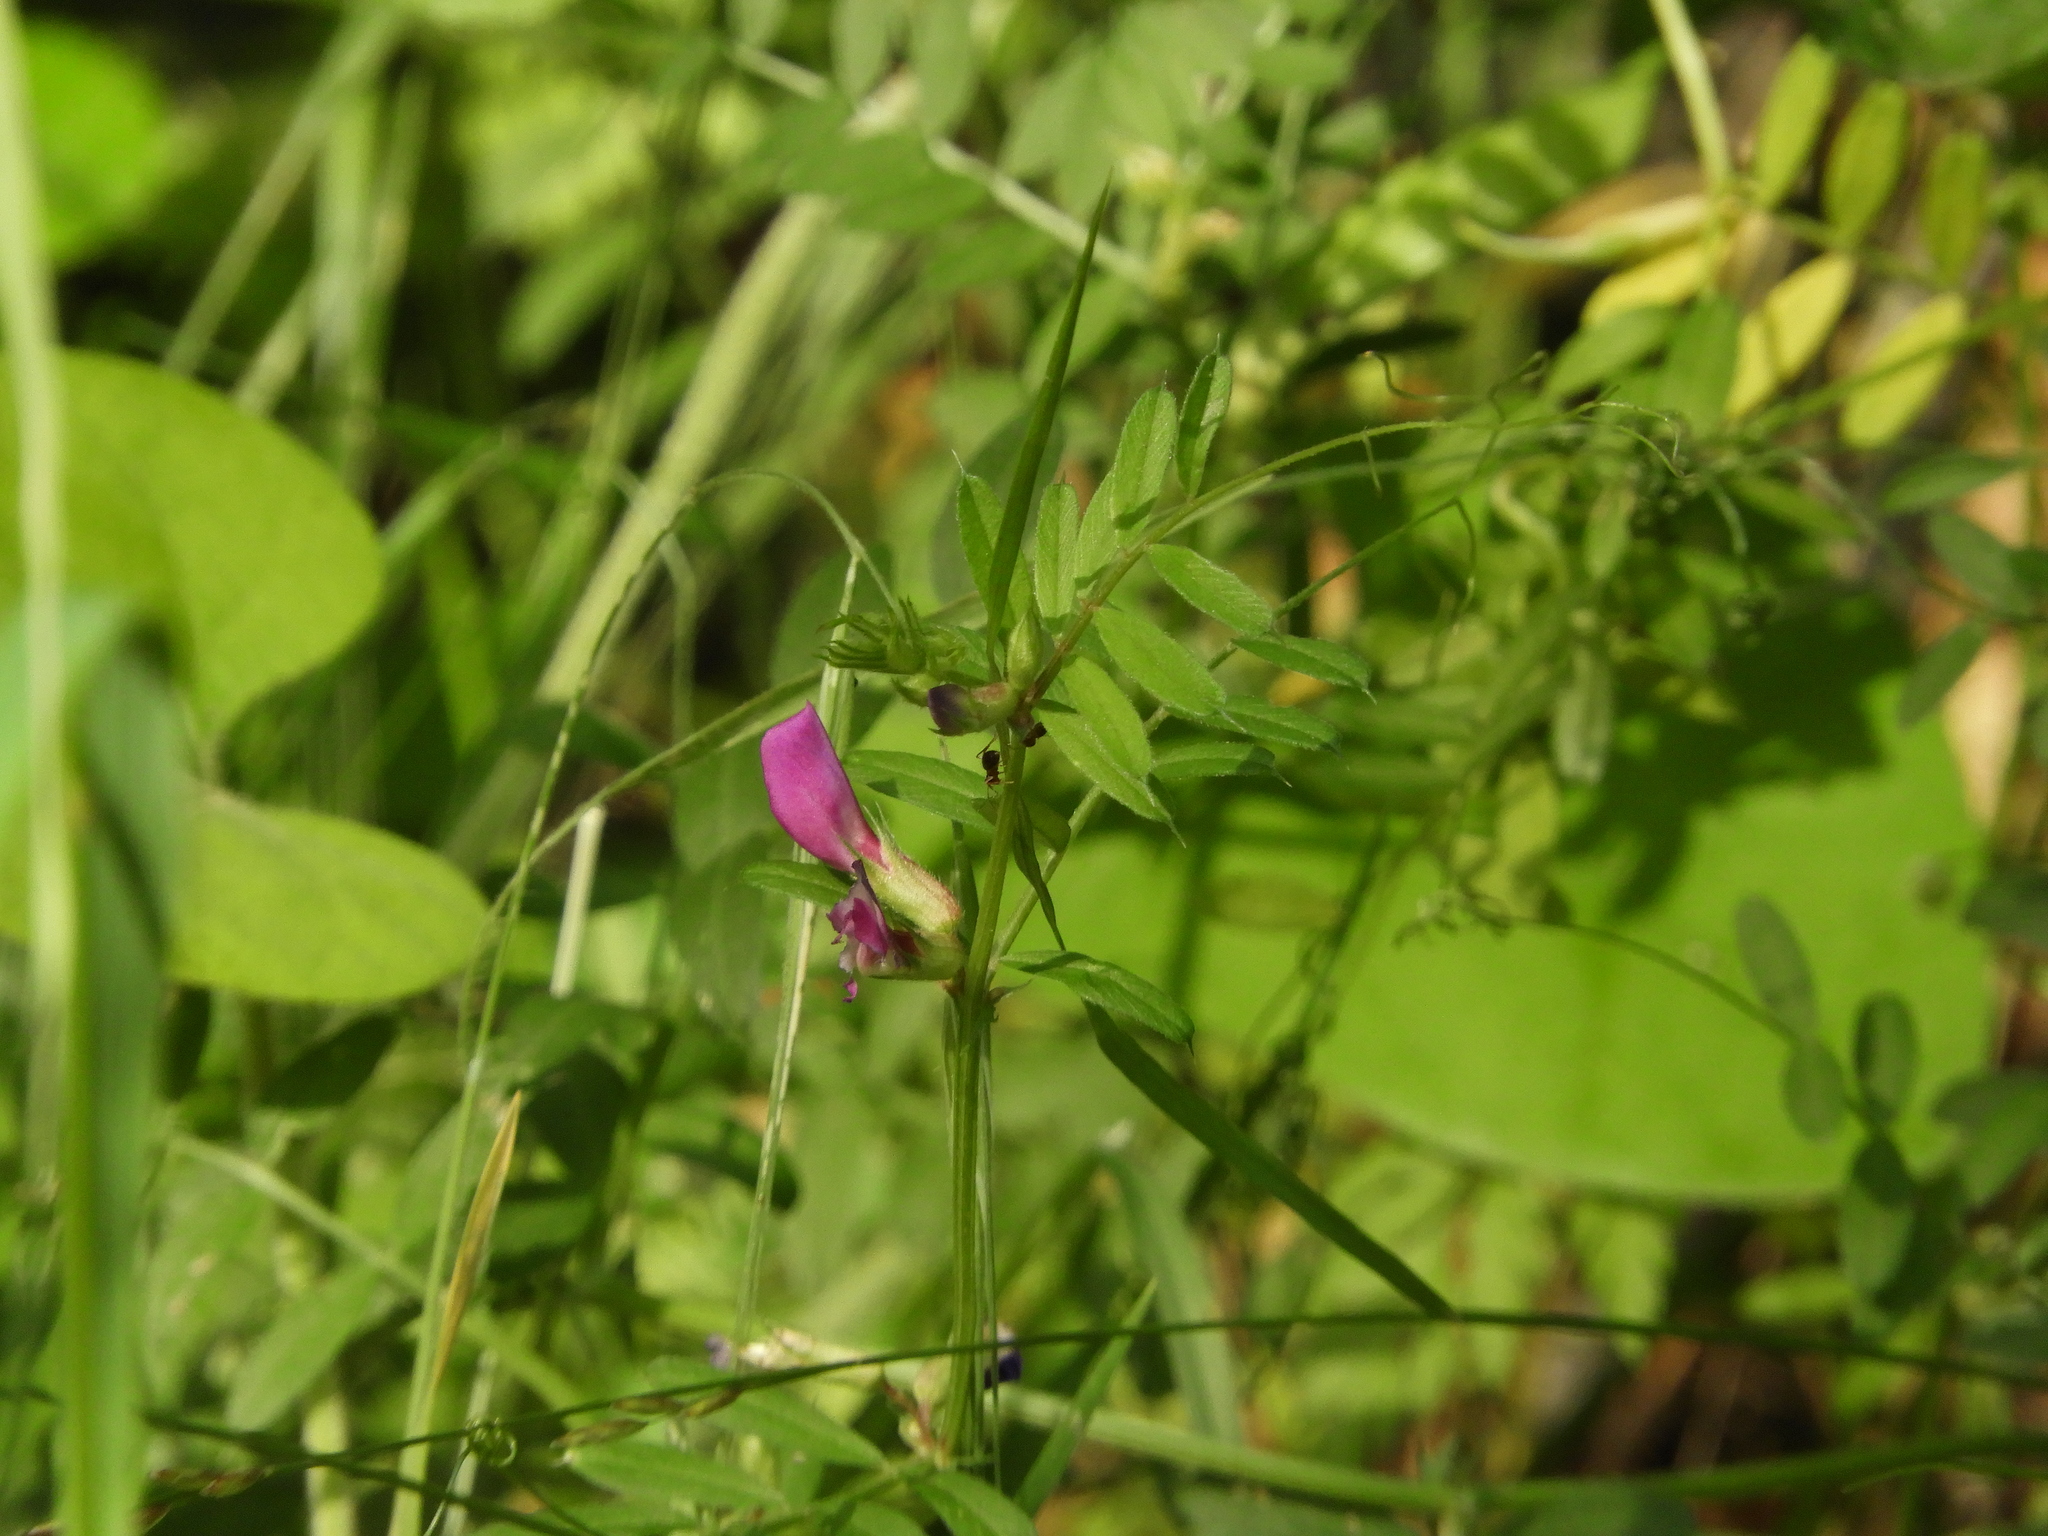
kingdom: Plantae
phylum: Tracheophyta
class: Magnoliopsida
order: Fabales
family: Fabaceae
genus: Vicia
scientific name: Vicia sativa
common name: Garden vetch
